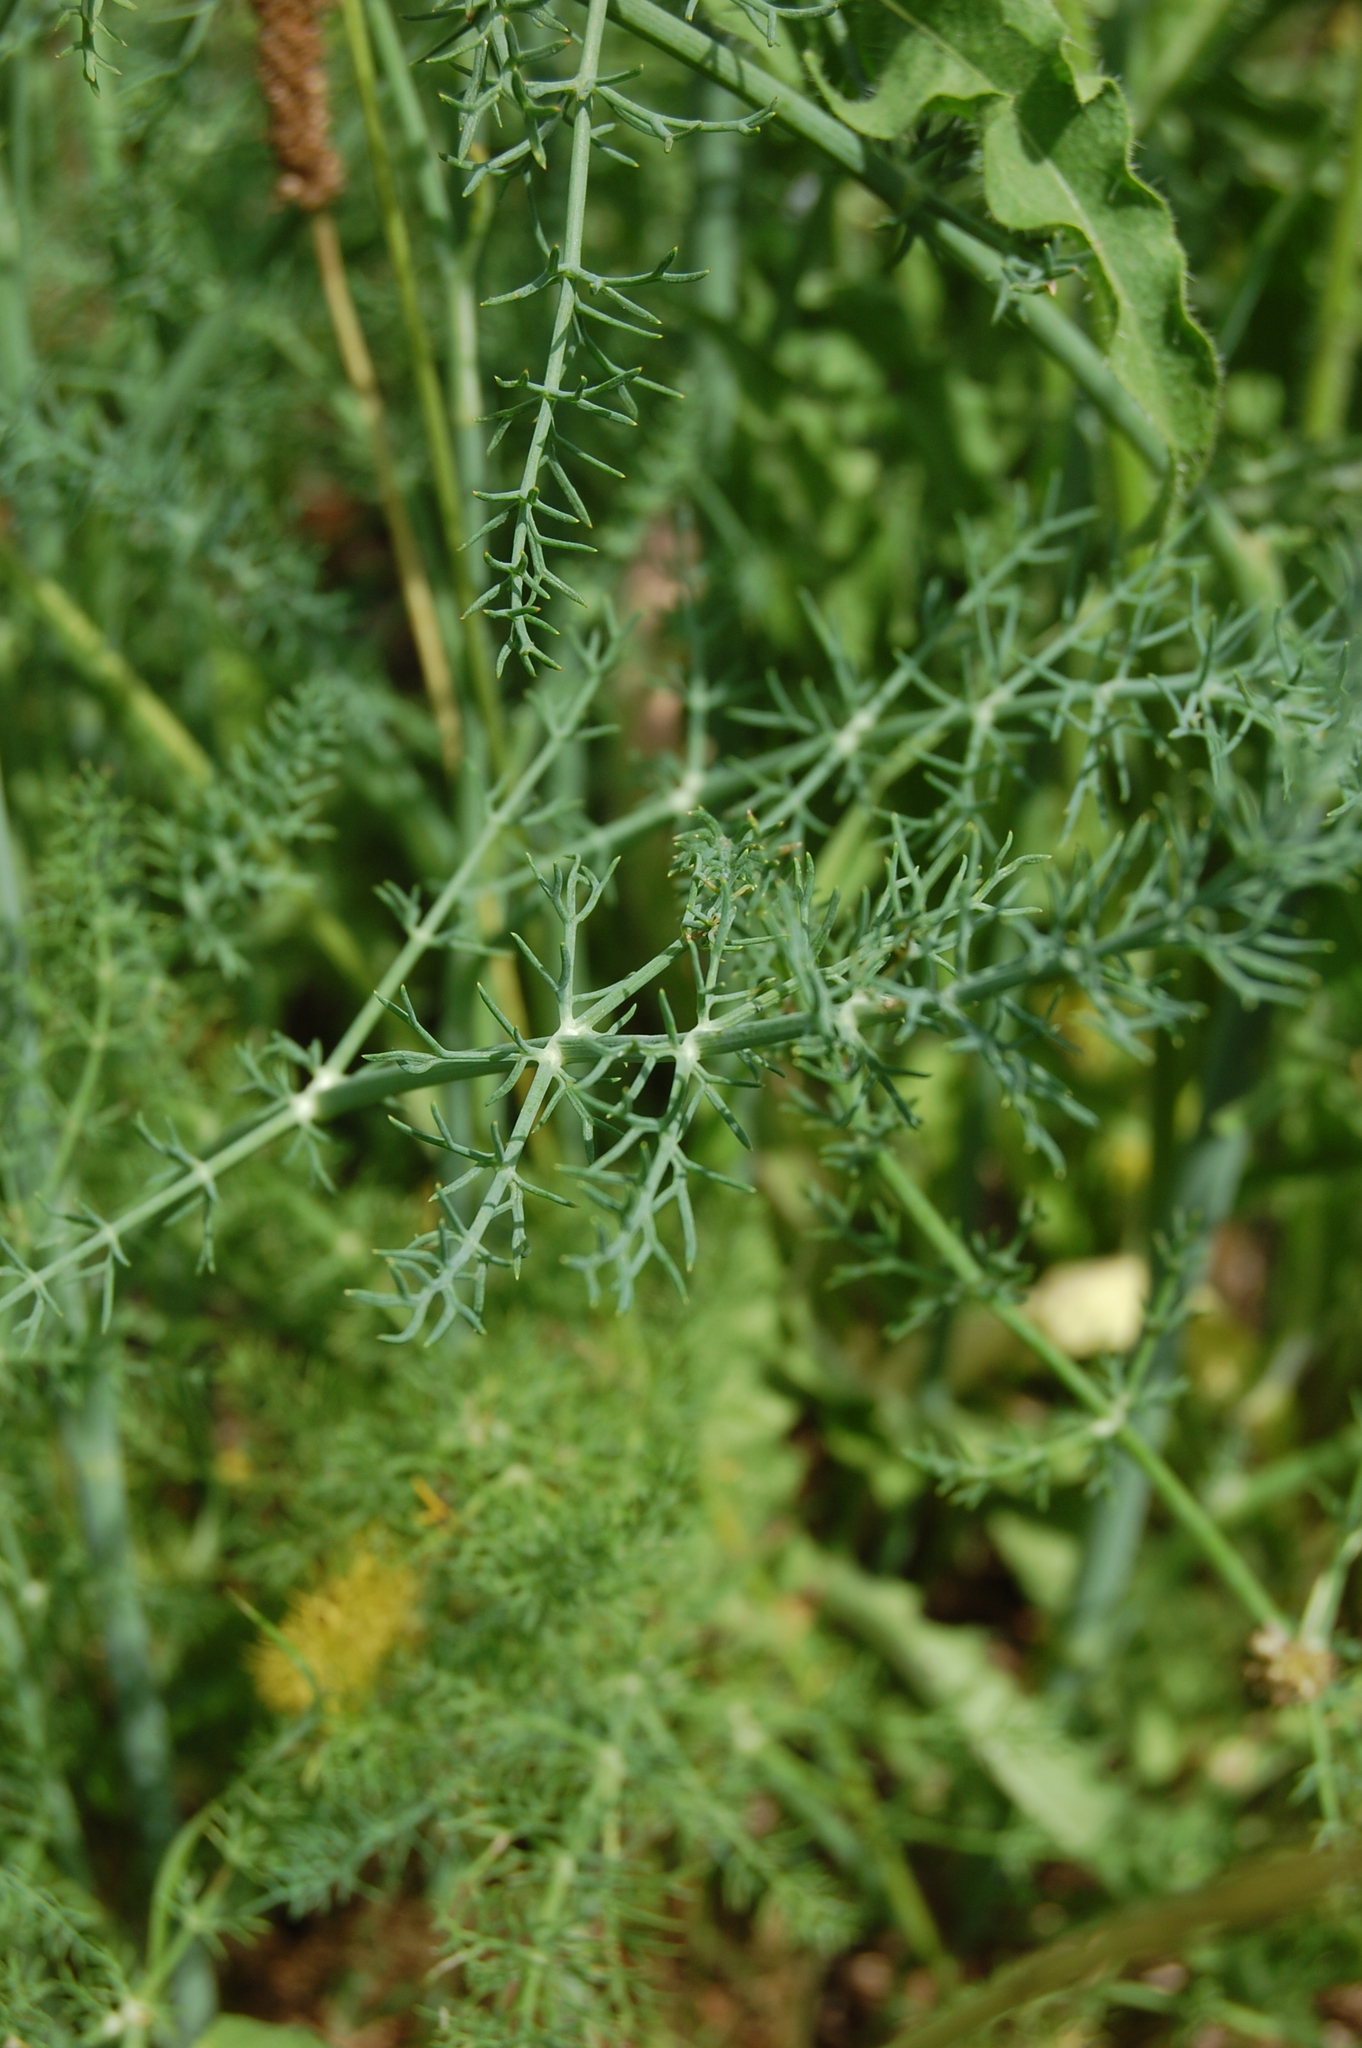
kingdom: Plantae
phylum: Tracheophyta
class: Magnoliopsida
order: Apiales
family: Apiaceae
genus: Foeniculum
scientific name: Foeniculum vulgare
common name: Fennel
